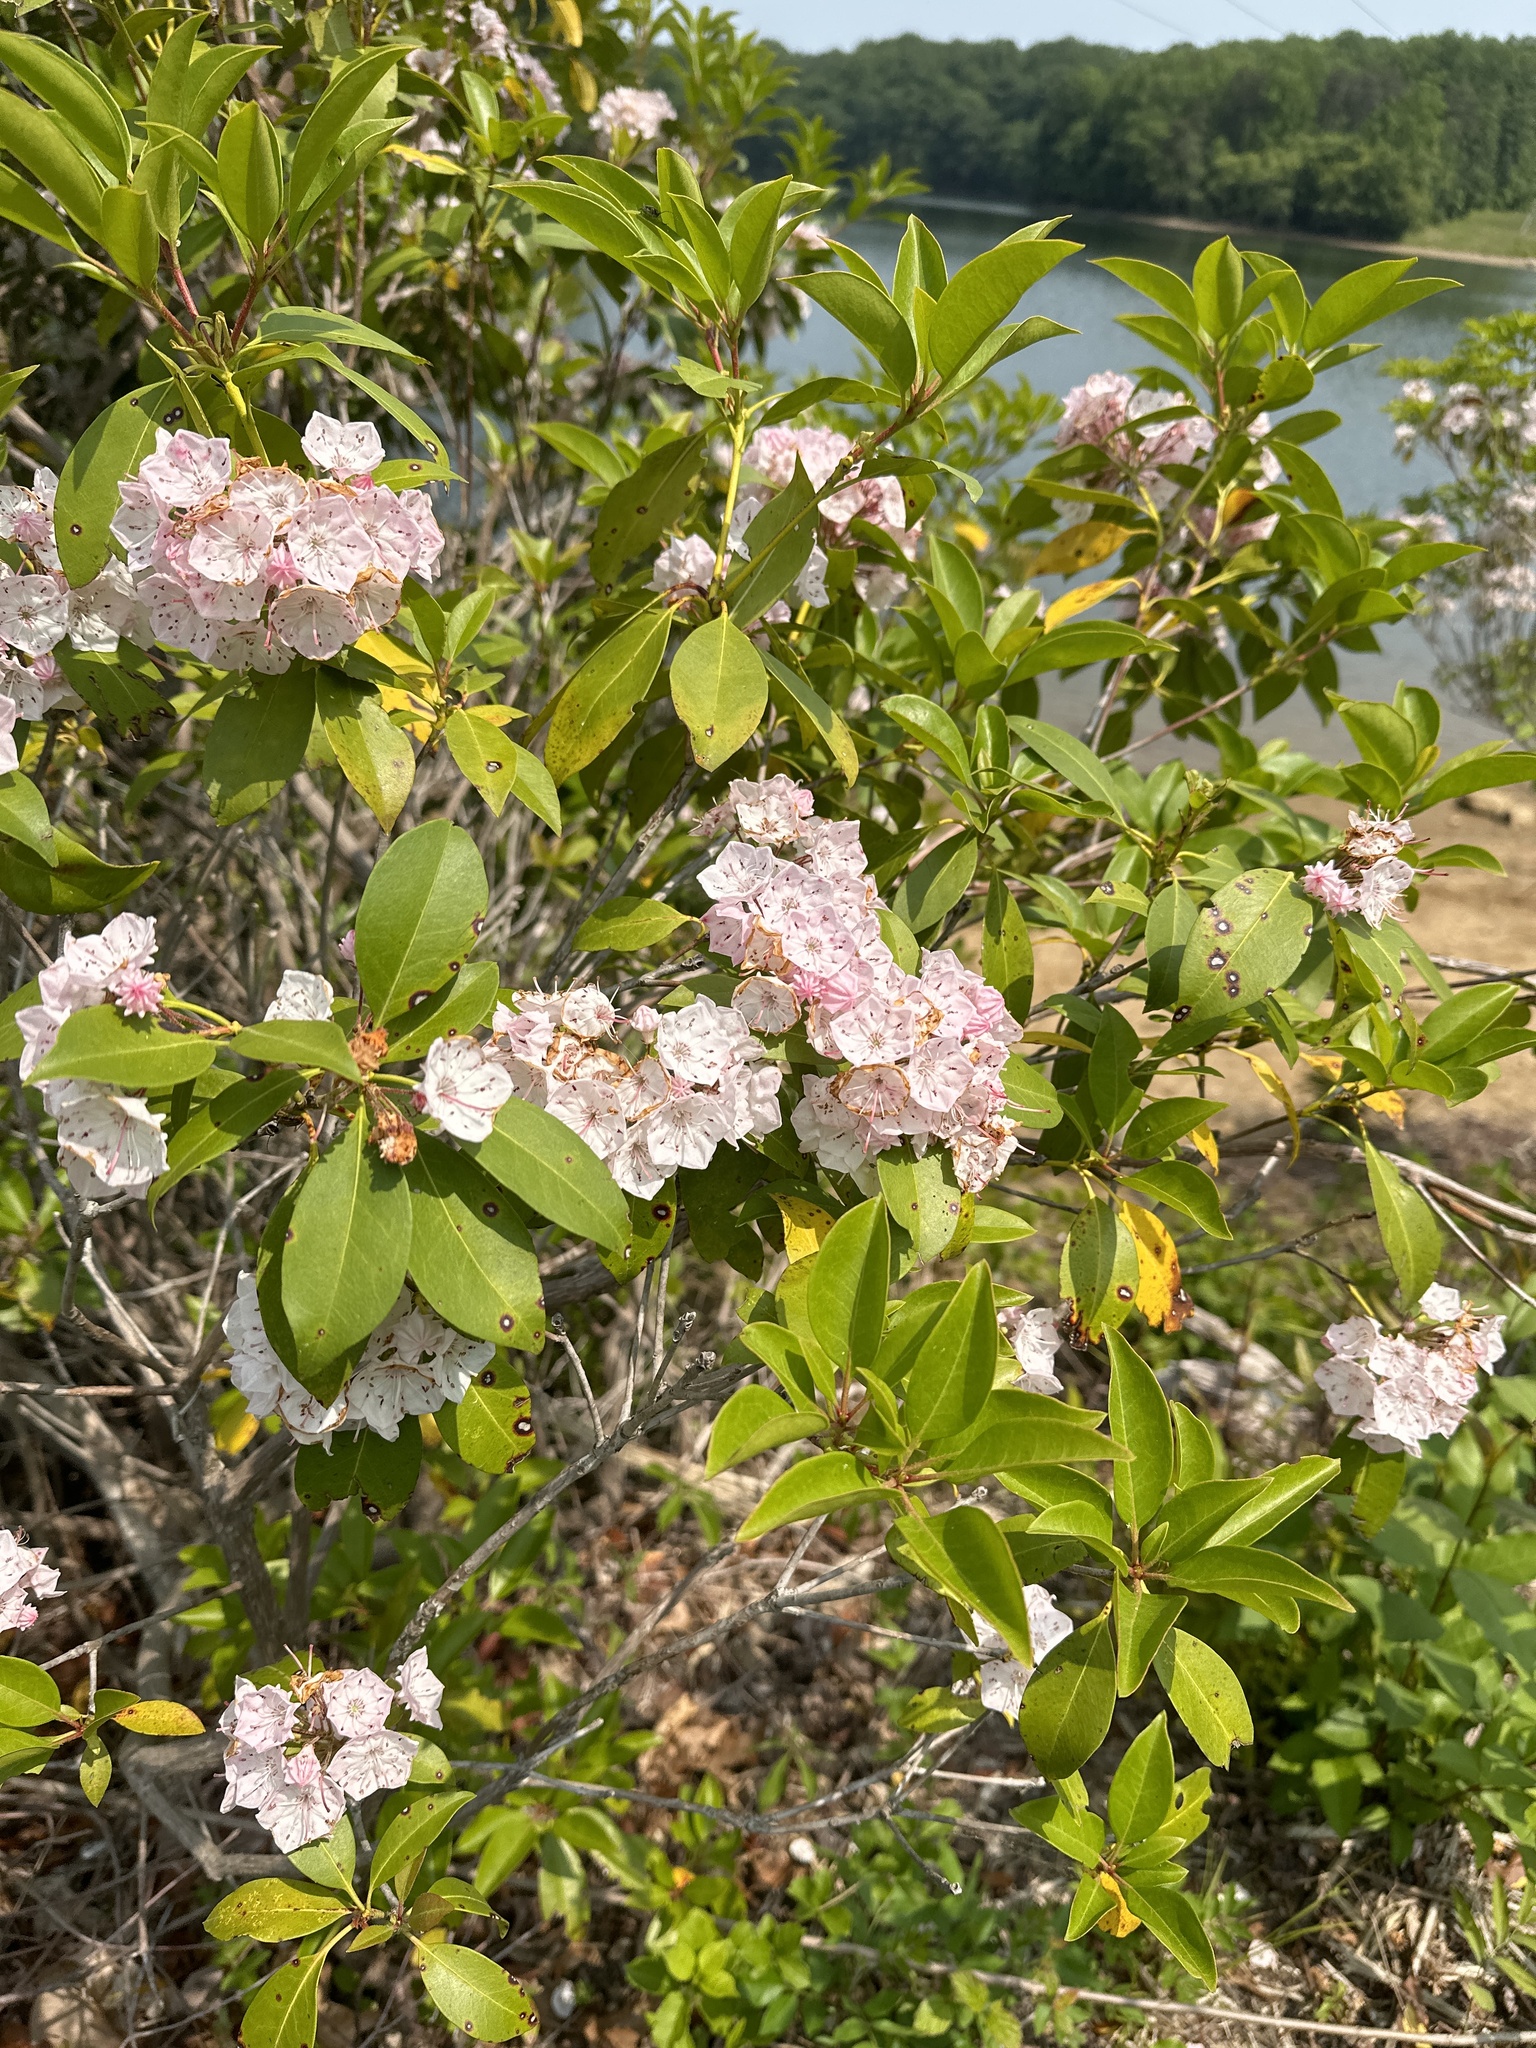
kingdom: Plantae
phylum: Tracheophyta
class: Magnoliopsida
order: Ericales
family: Ericaceae
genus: Kalmia
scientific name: Kalmia latifolia
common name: Mountain-laurel
